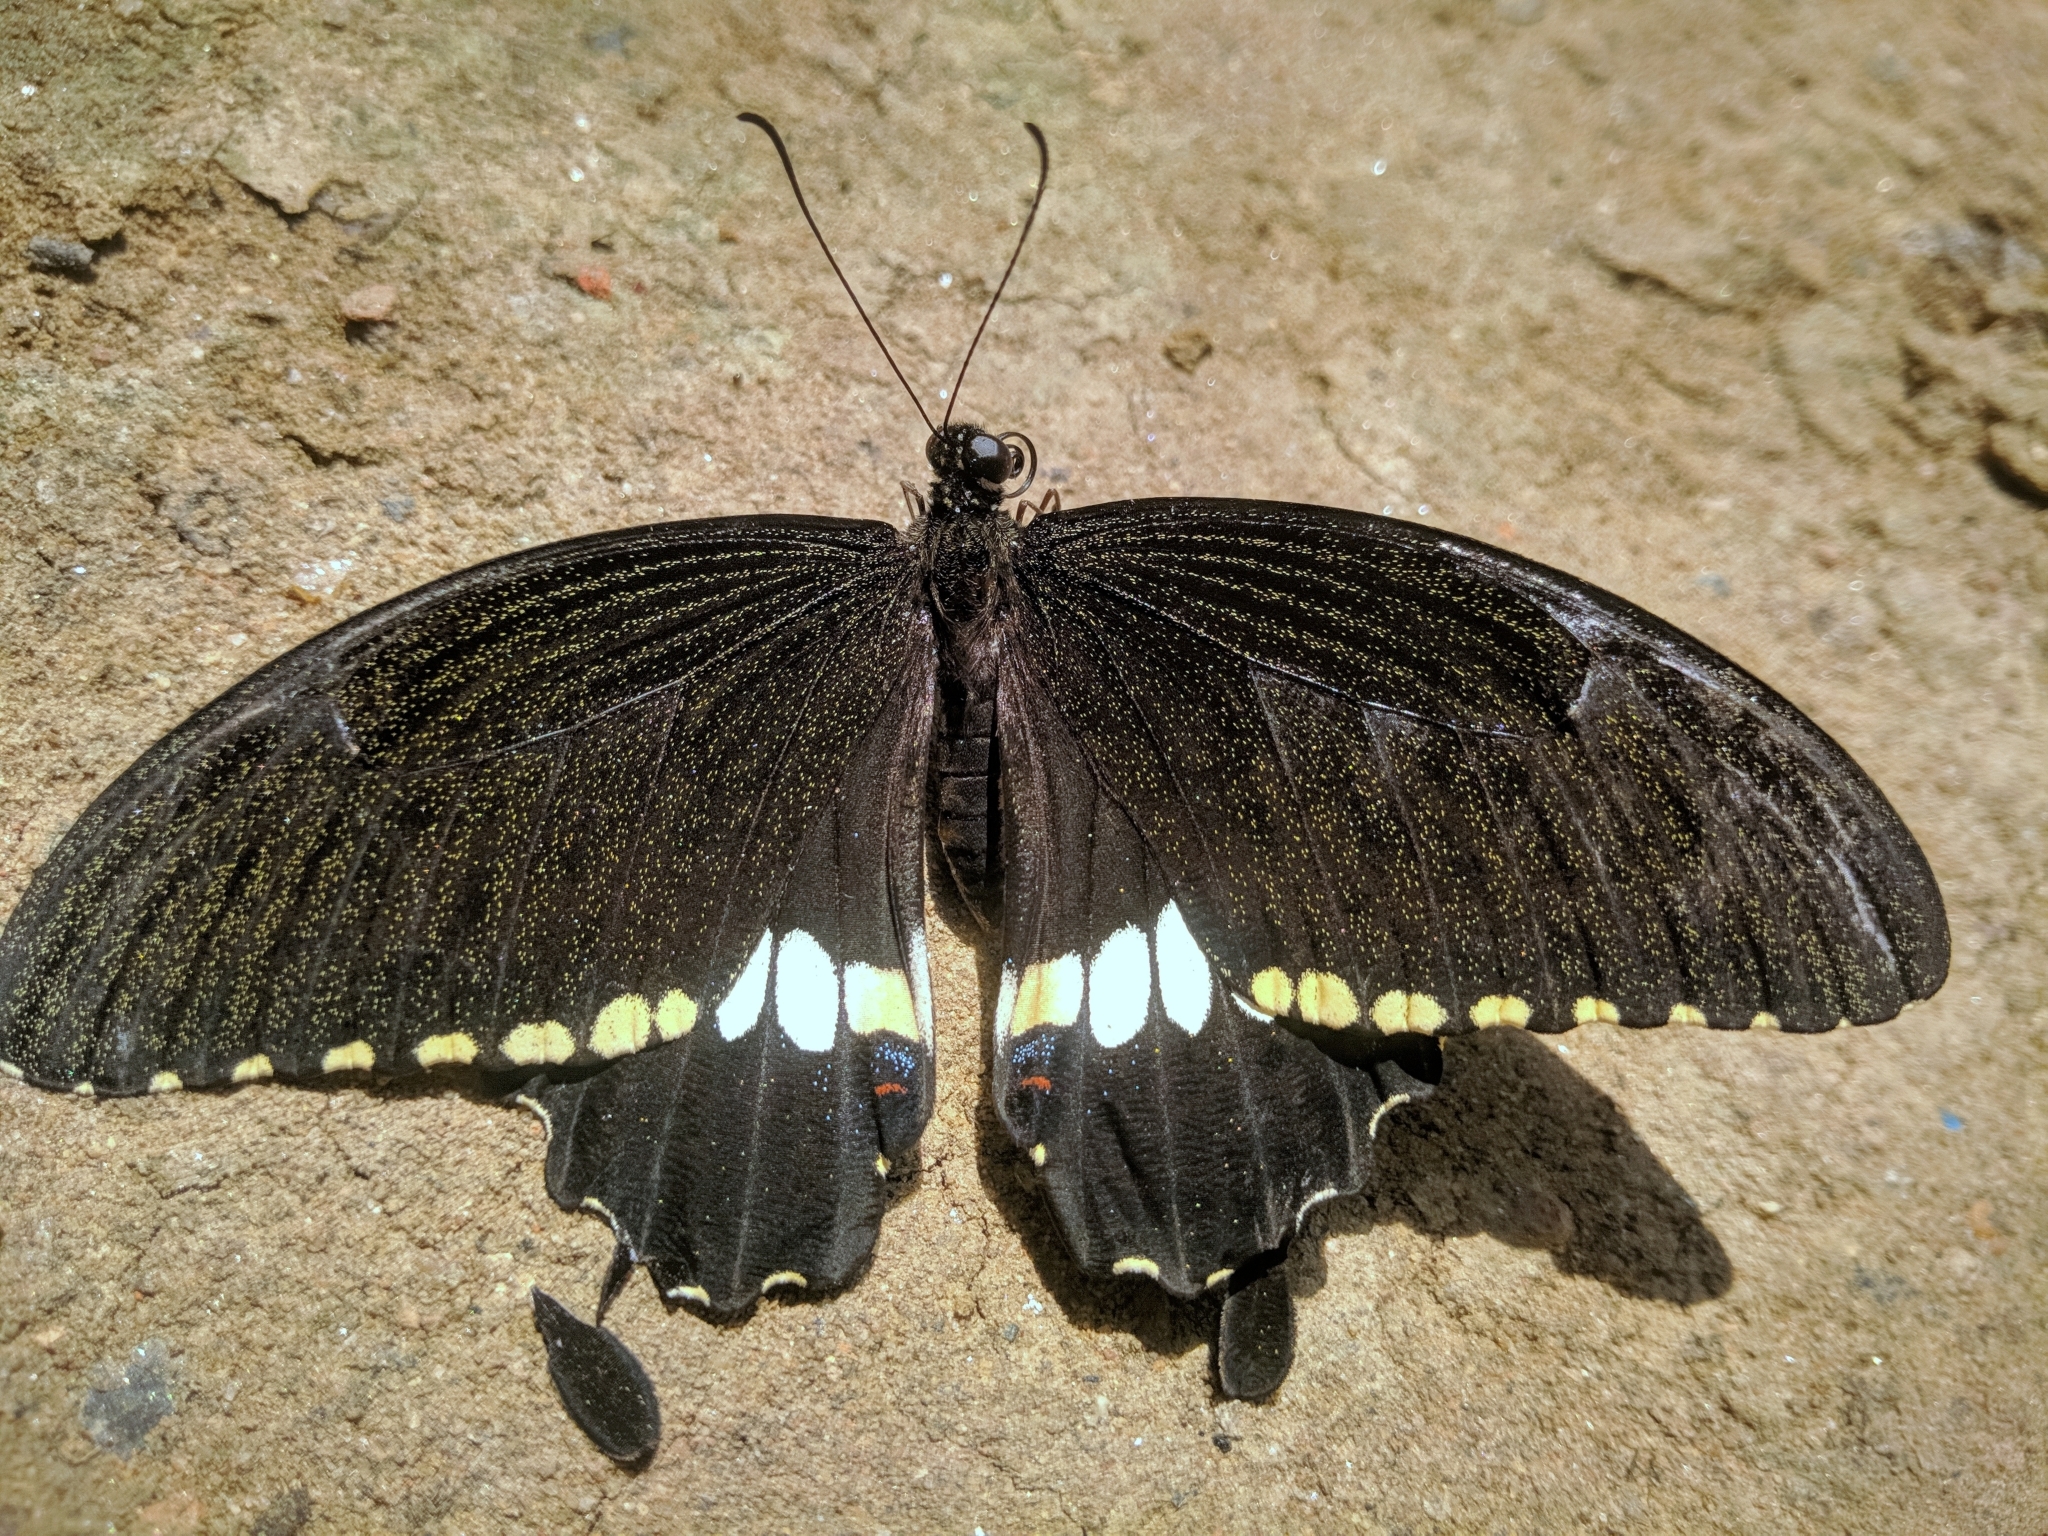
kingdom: Animalia
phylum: Arthropoda
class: Insecta
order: Lepidoptera
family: Papilionidae
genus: Papilio
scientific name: Papilio polytes
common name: Common mormon
